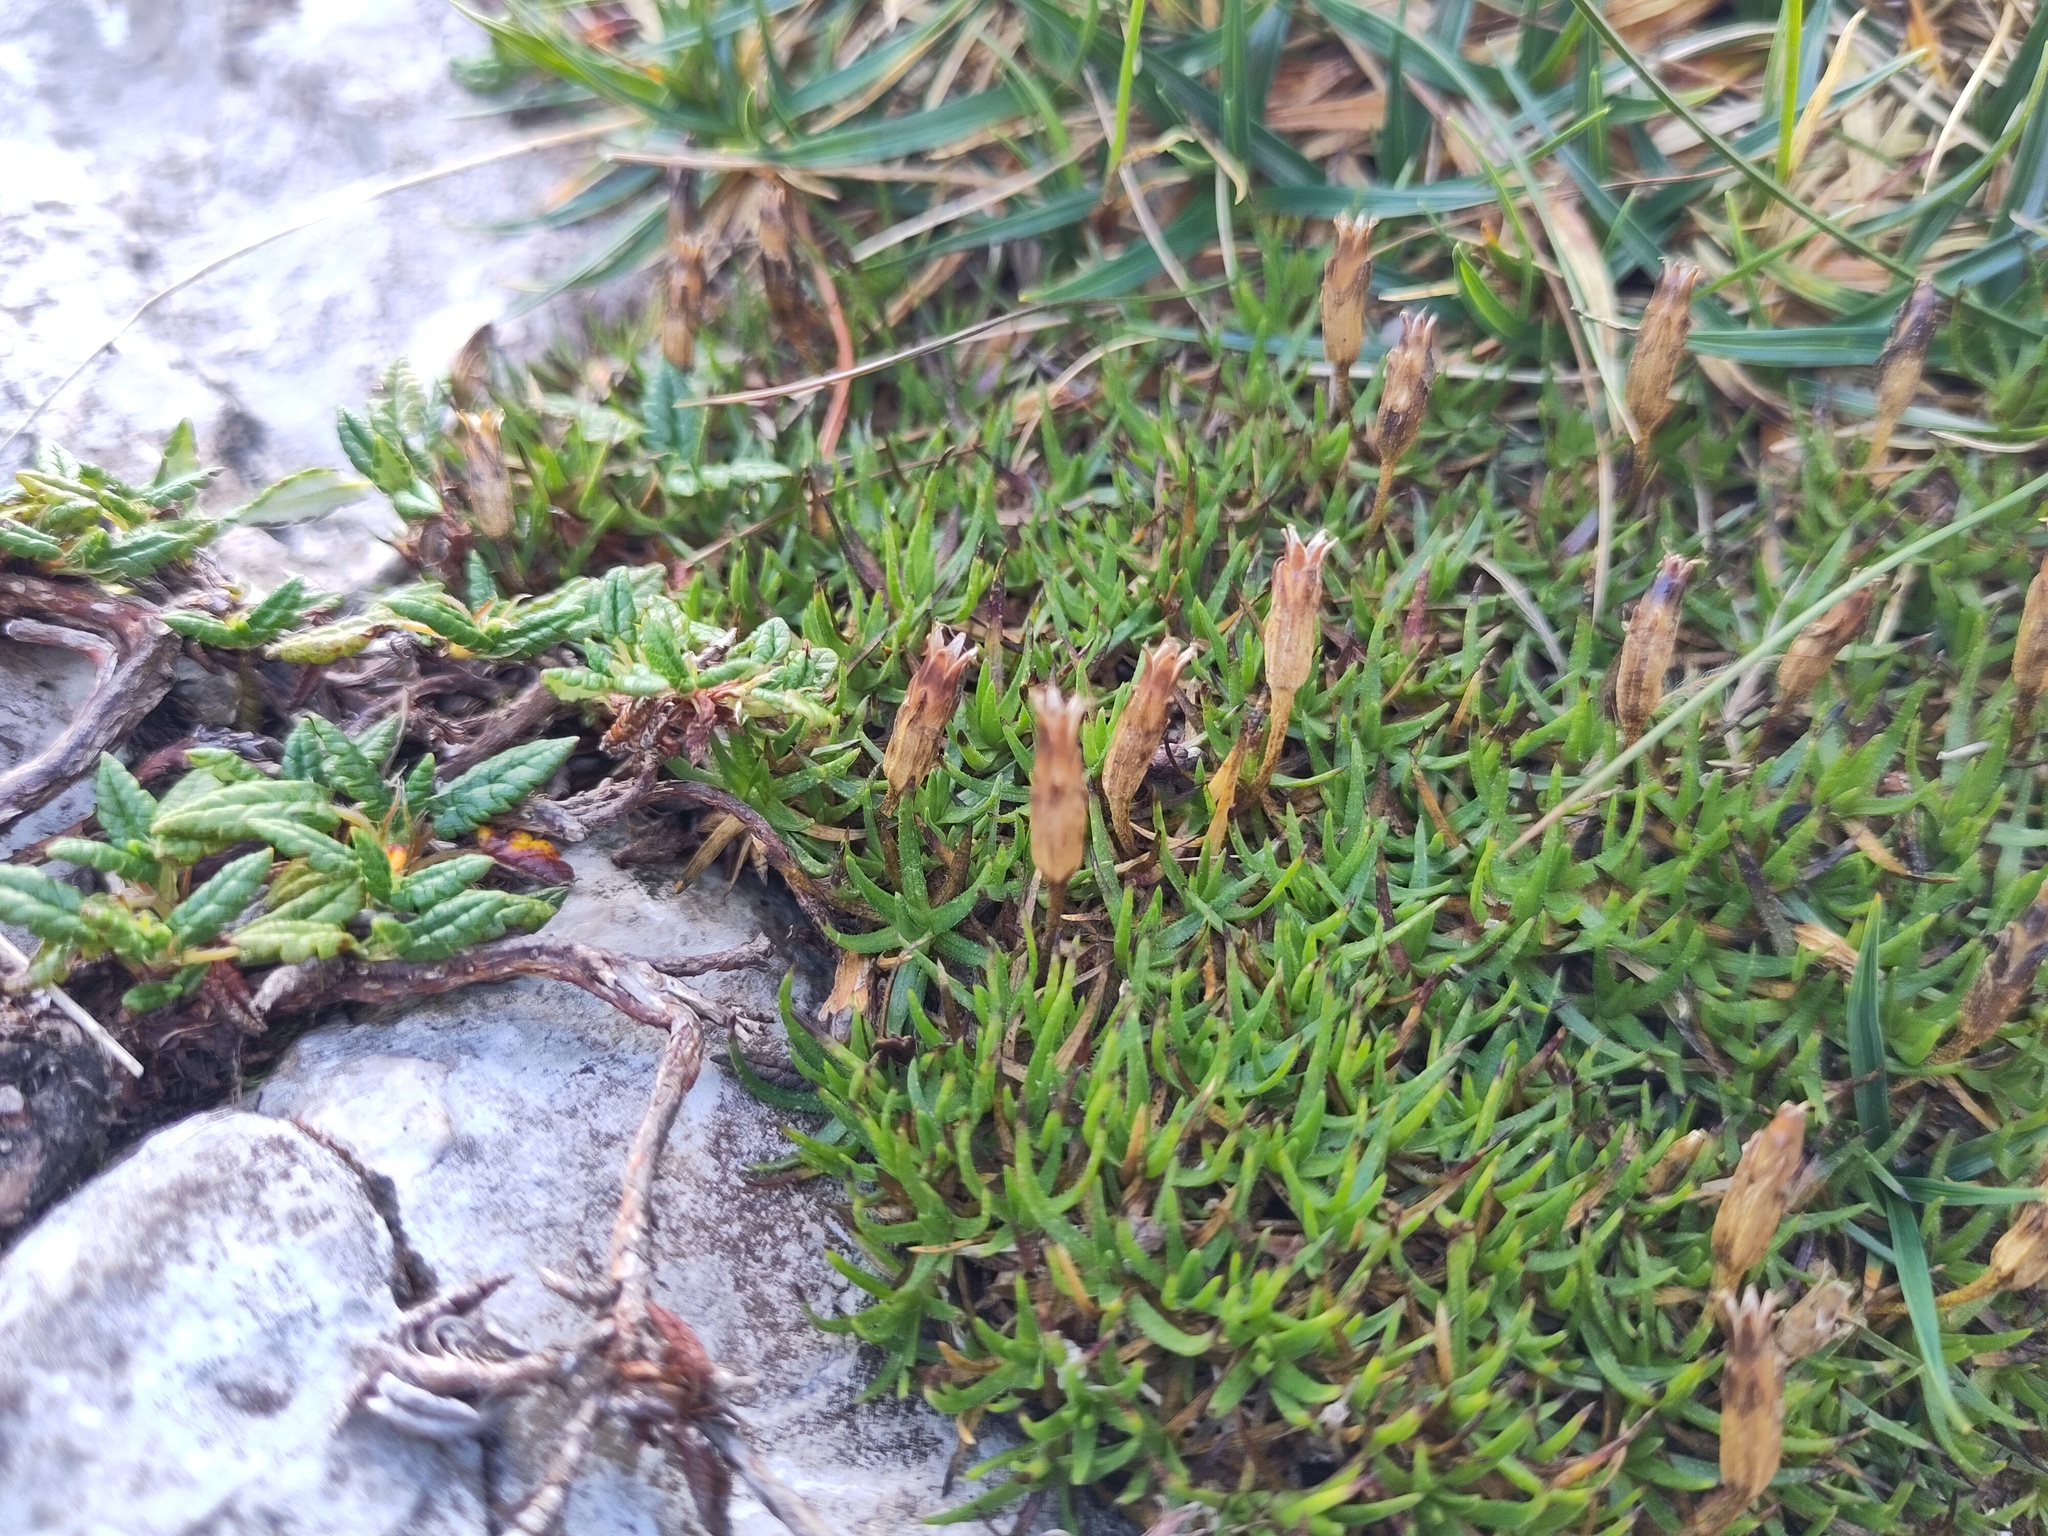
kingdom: Plantae
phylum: Tracheophyta
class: Magnoliopsida
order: Caryophyllales
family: Caryophyllaceae
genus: Silene
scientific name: Silene acaulis
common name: Moss campion
